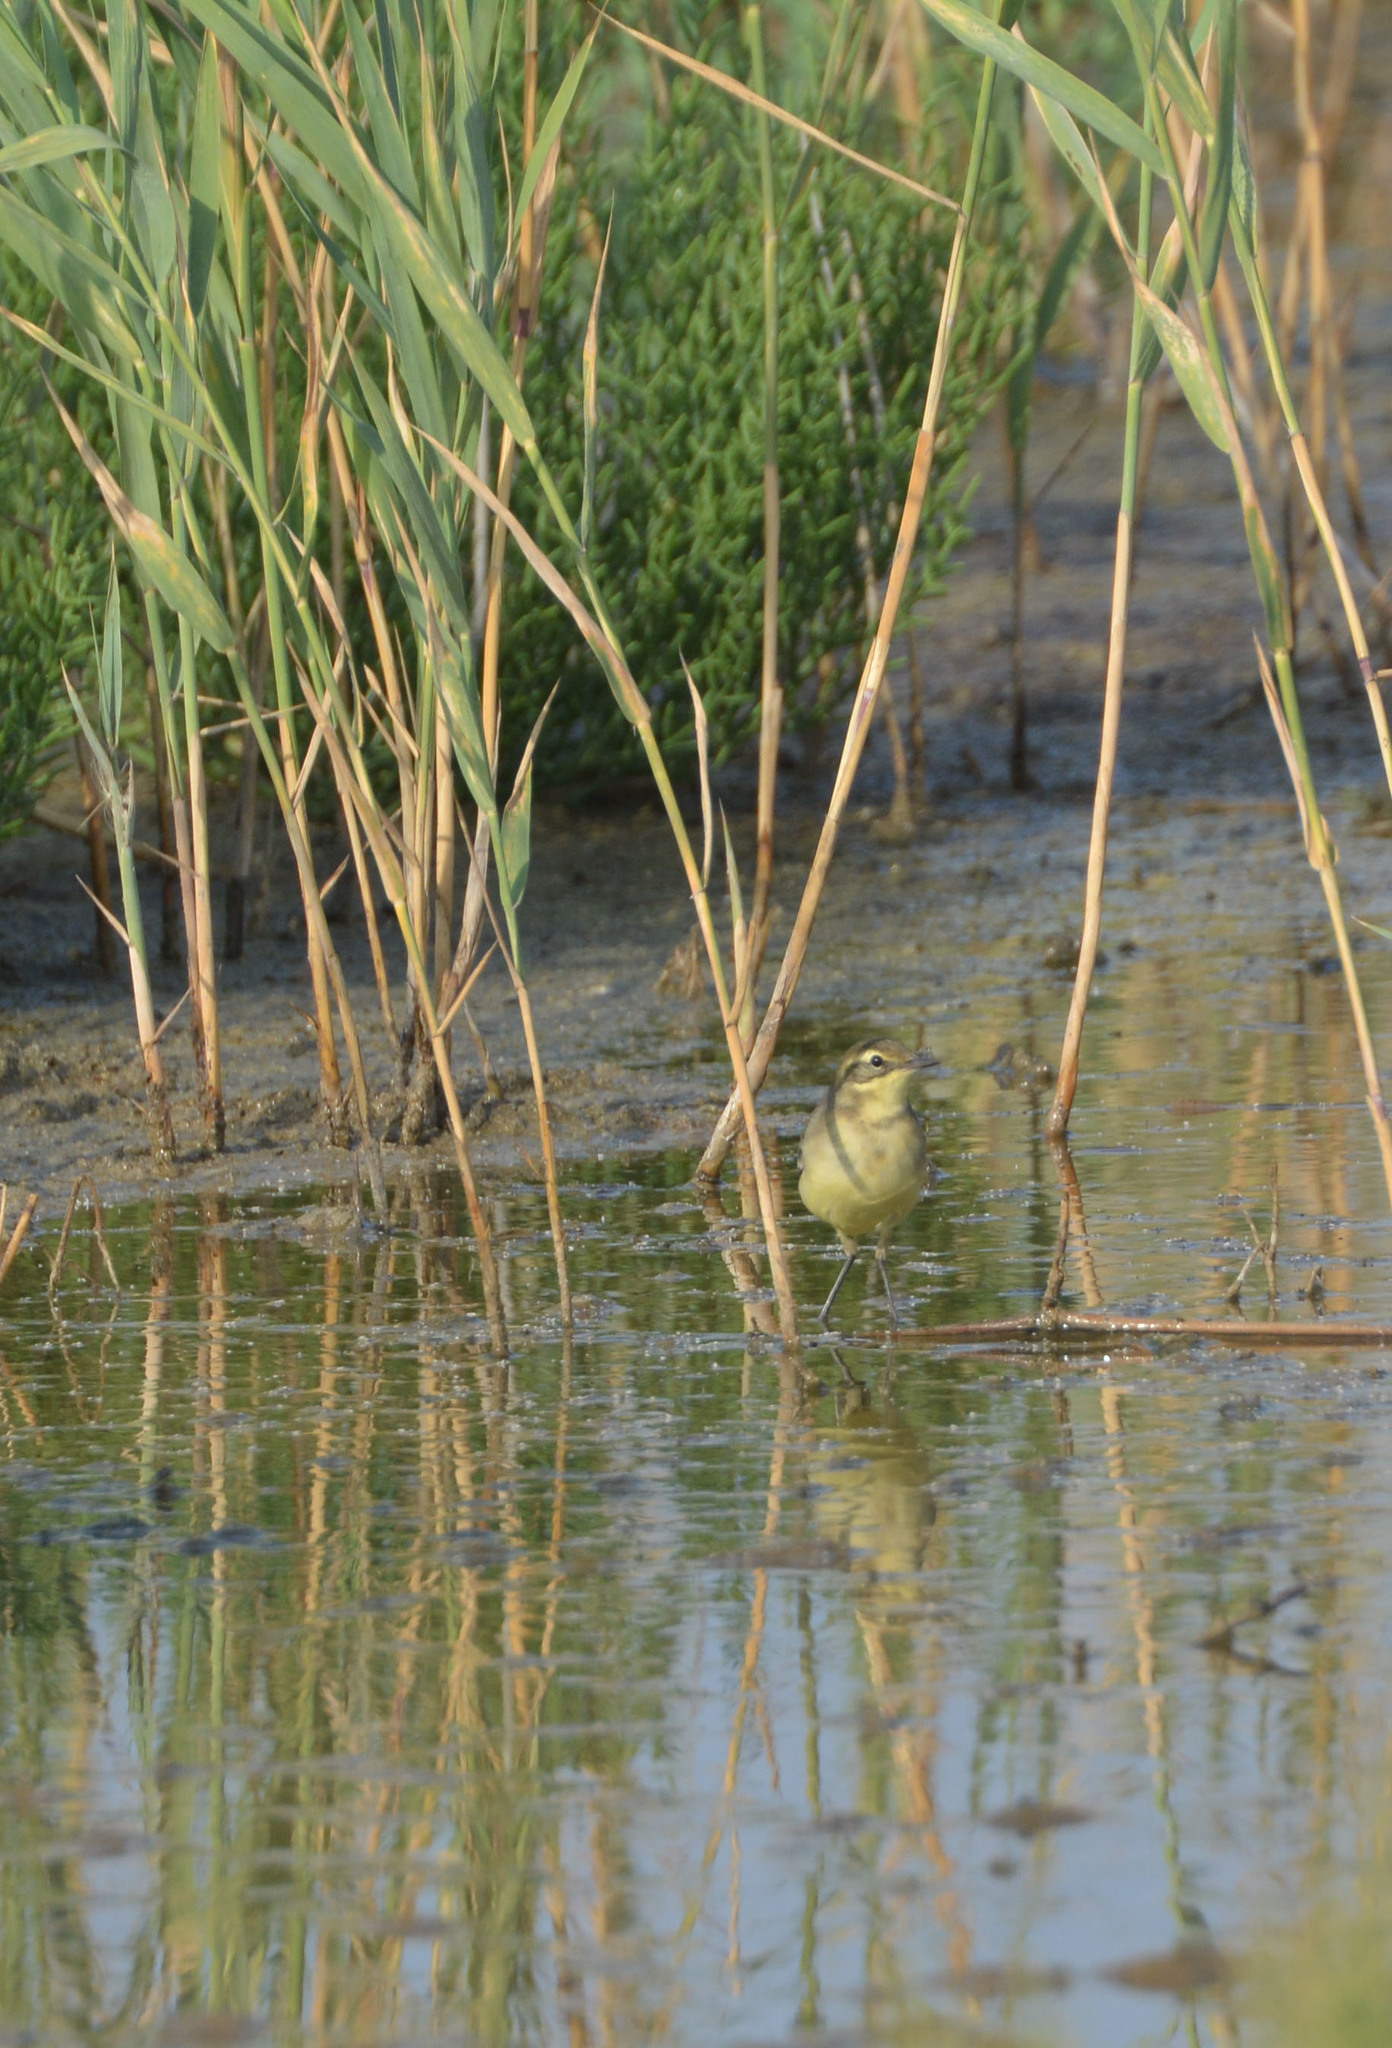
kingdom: Animalia
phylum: Chordata
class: Aves
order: Passeriformes
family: Motacillidae
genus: Motacilla
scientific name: Motacilla citreola
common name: Citrine wagtail
